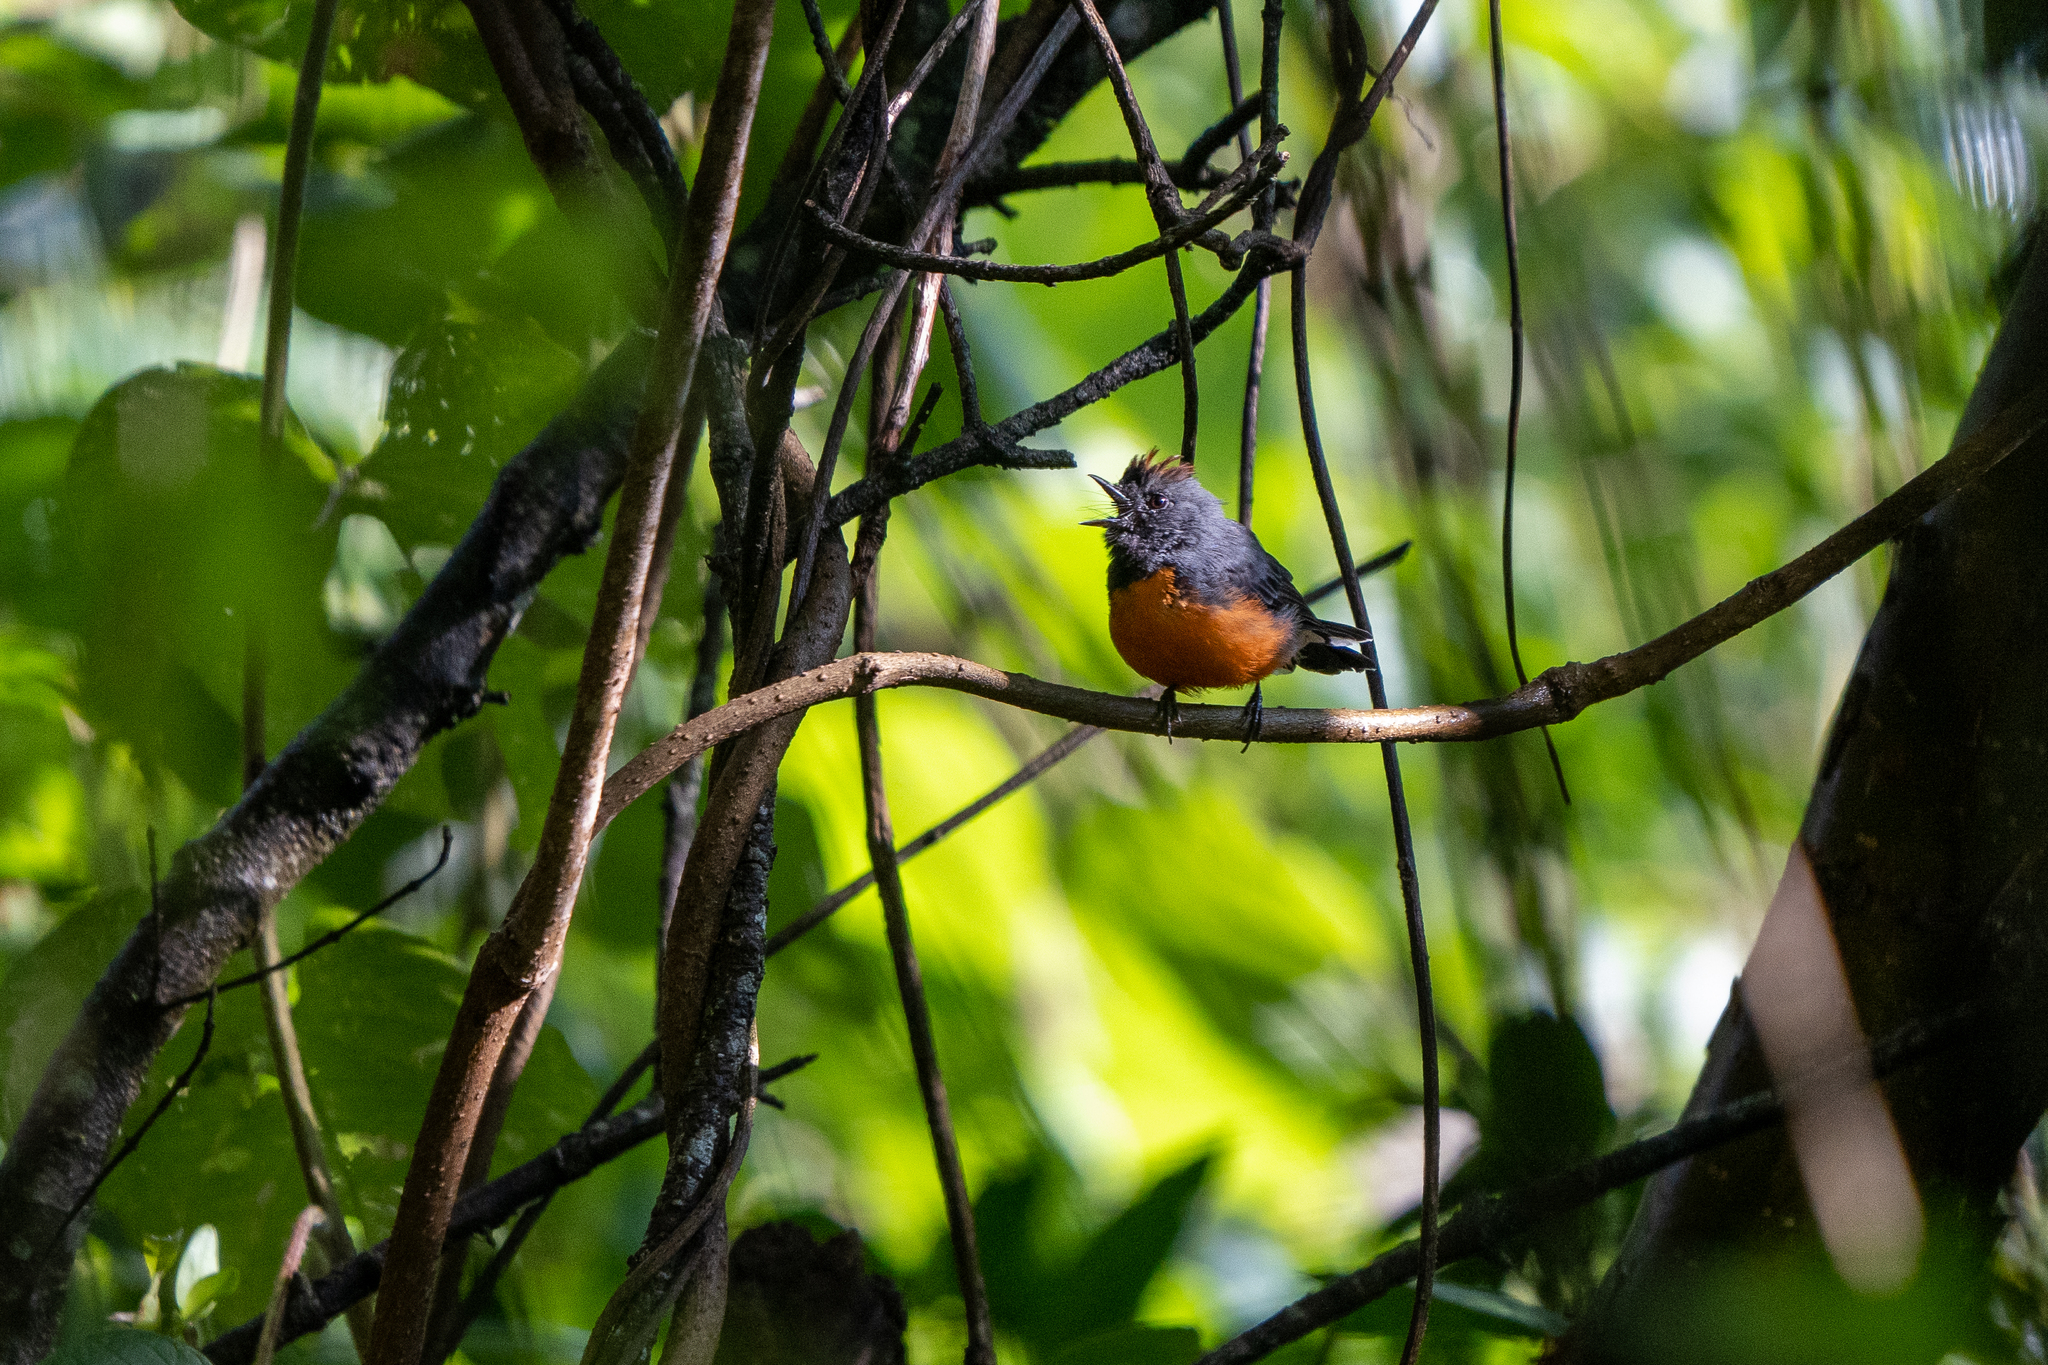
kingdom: Animalia
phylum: Chordata
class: Aves
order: Passeriformes
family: Parulidae
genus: Myioborus
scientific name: Myioborus miniatus
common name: Slate-throated redstart
